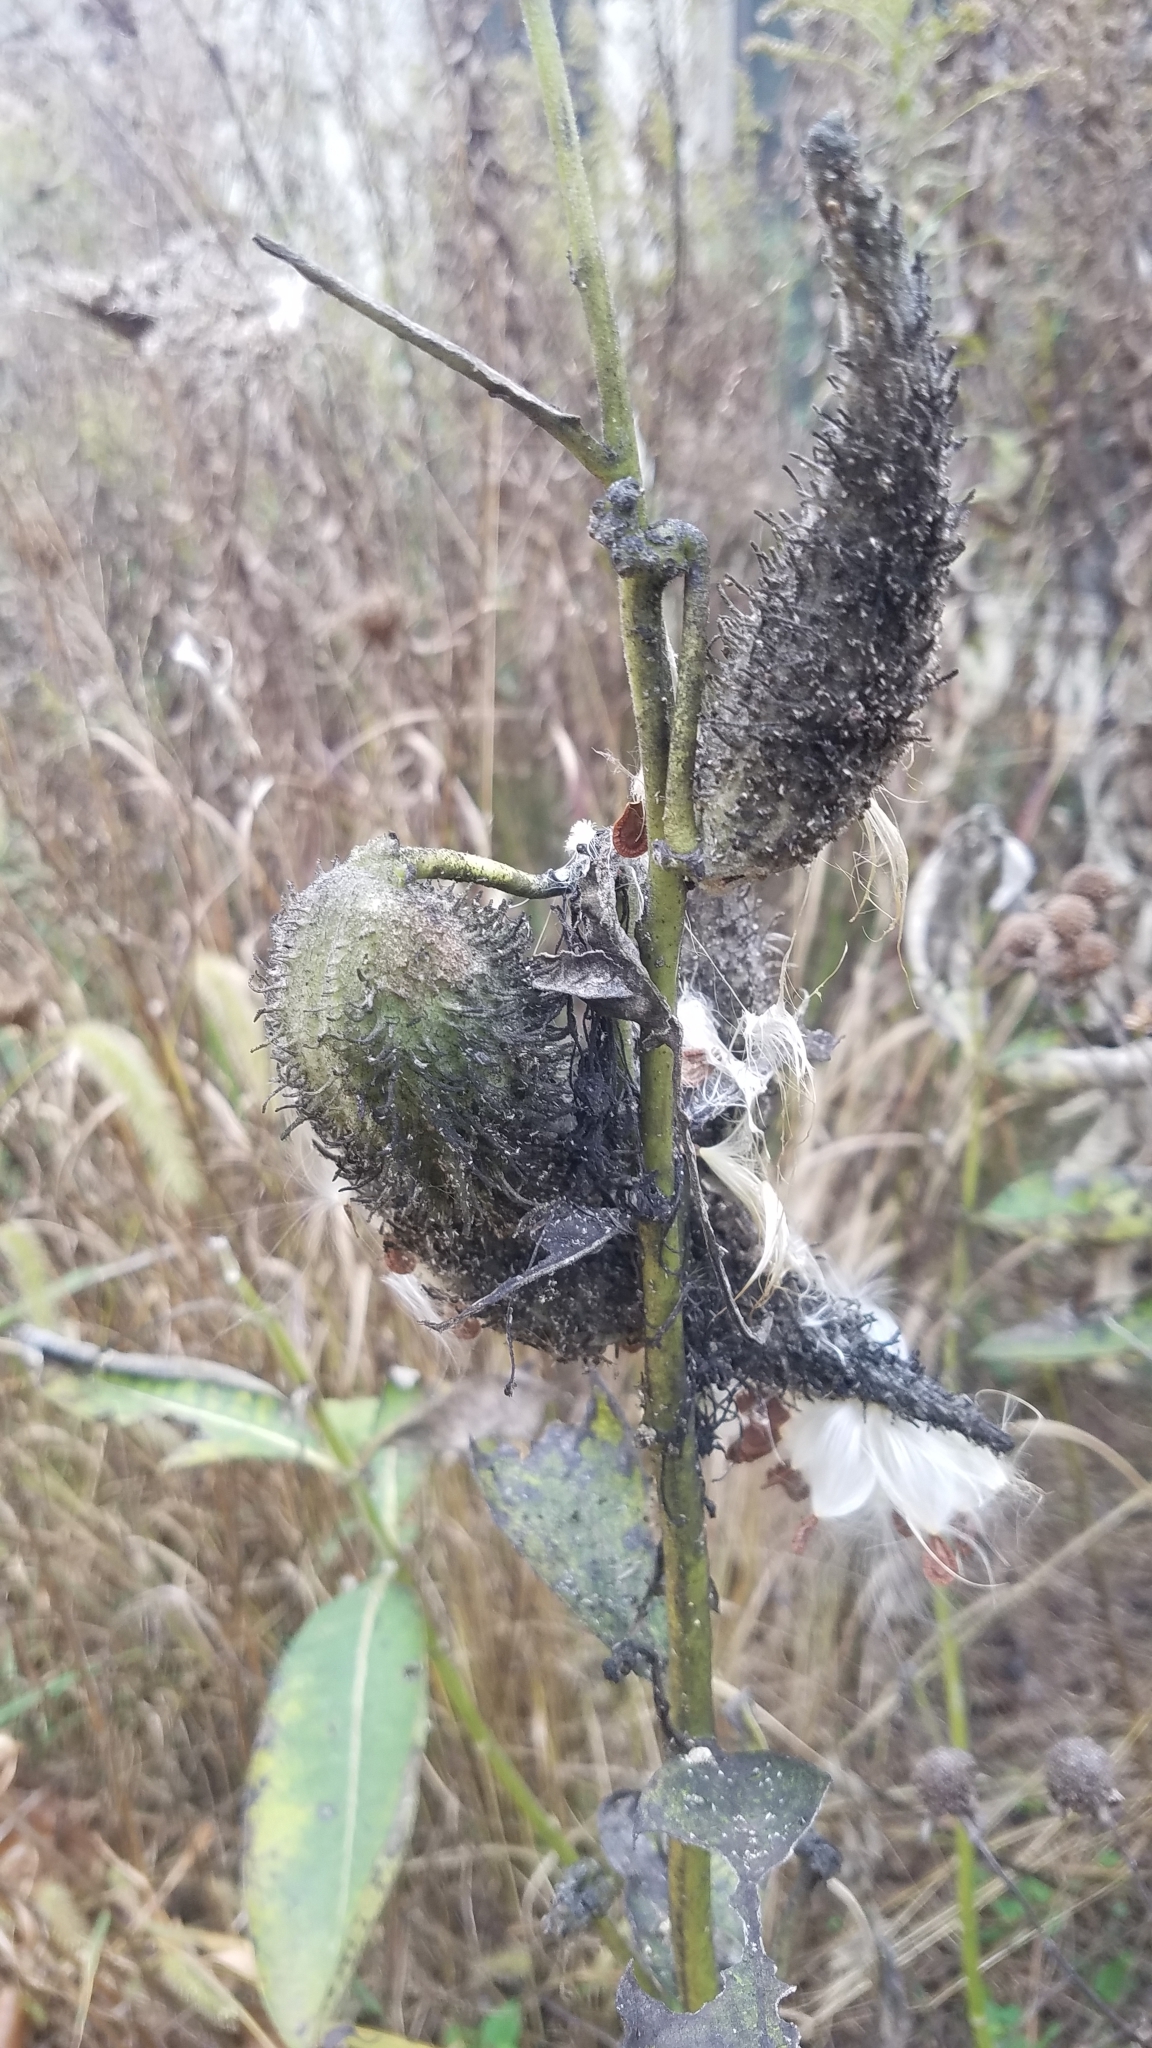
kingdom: Plantae
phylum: Tracheophyta
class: Magnoliopsida
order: Gentianales
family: Apocynaceae
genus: Asclepias
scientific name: Asclepias syriaca
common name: Common milkweed
